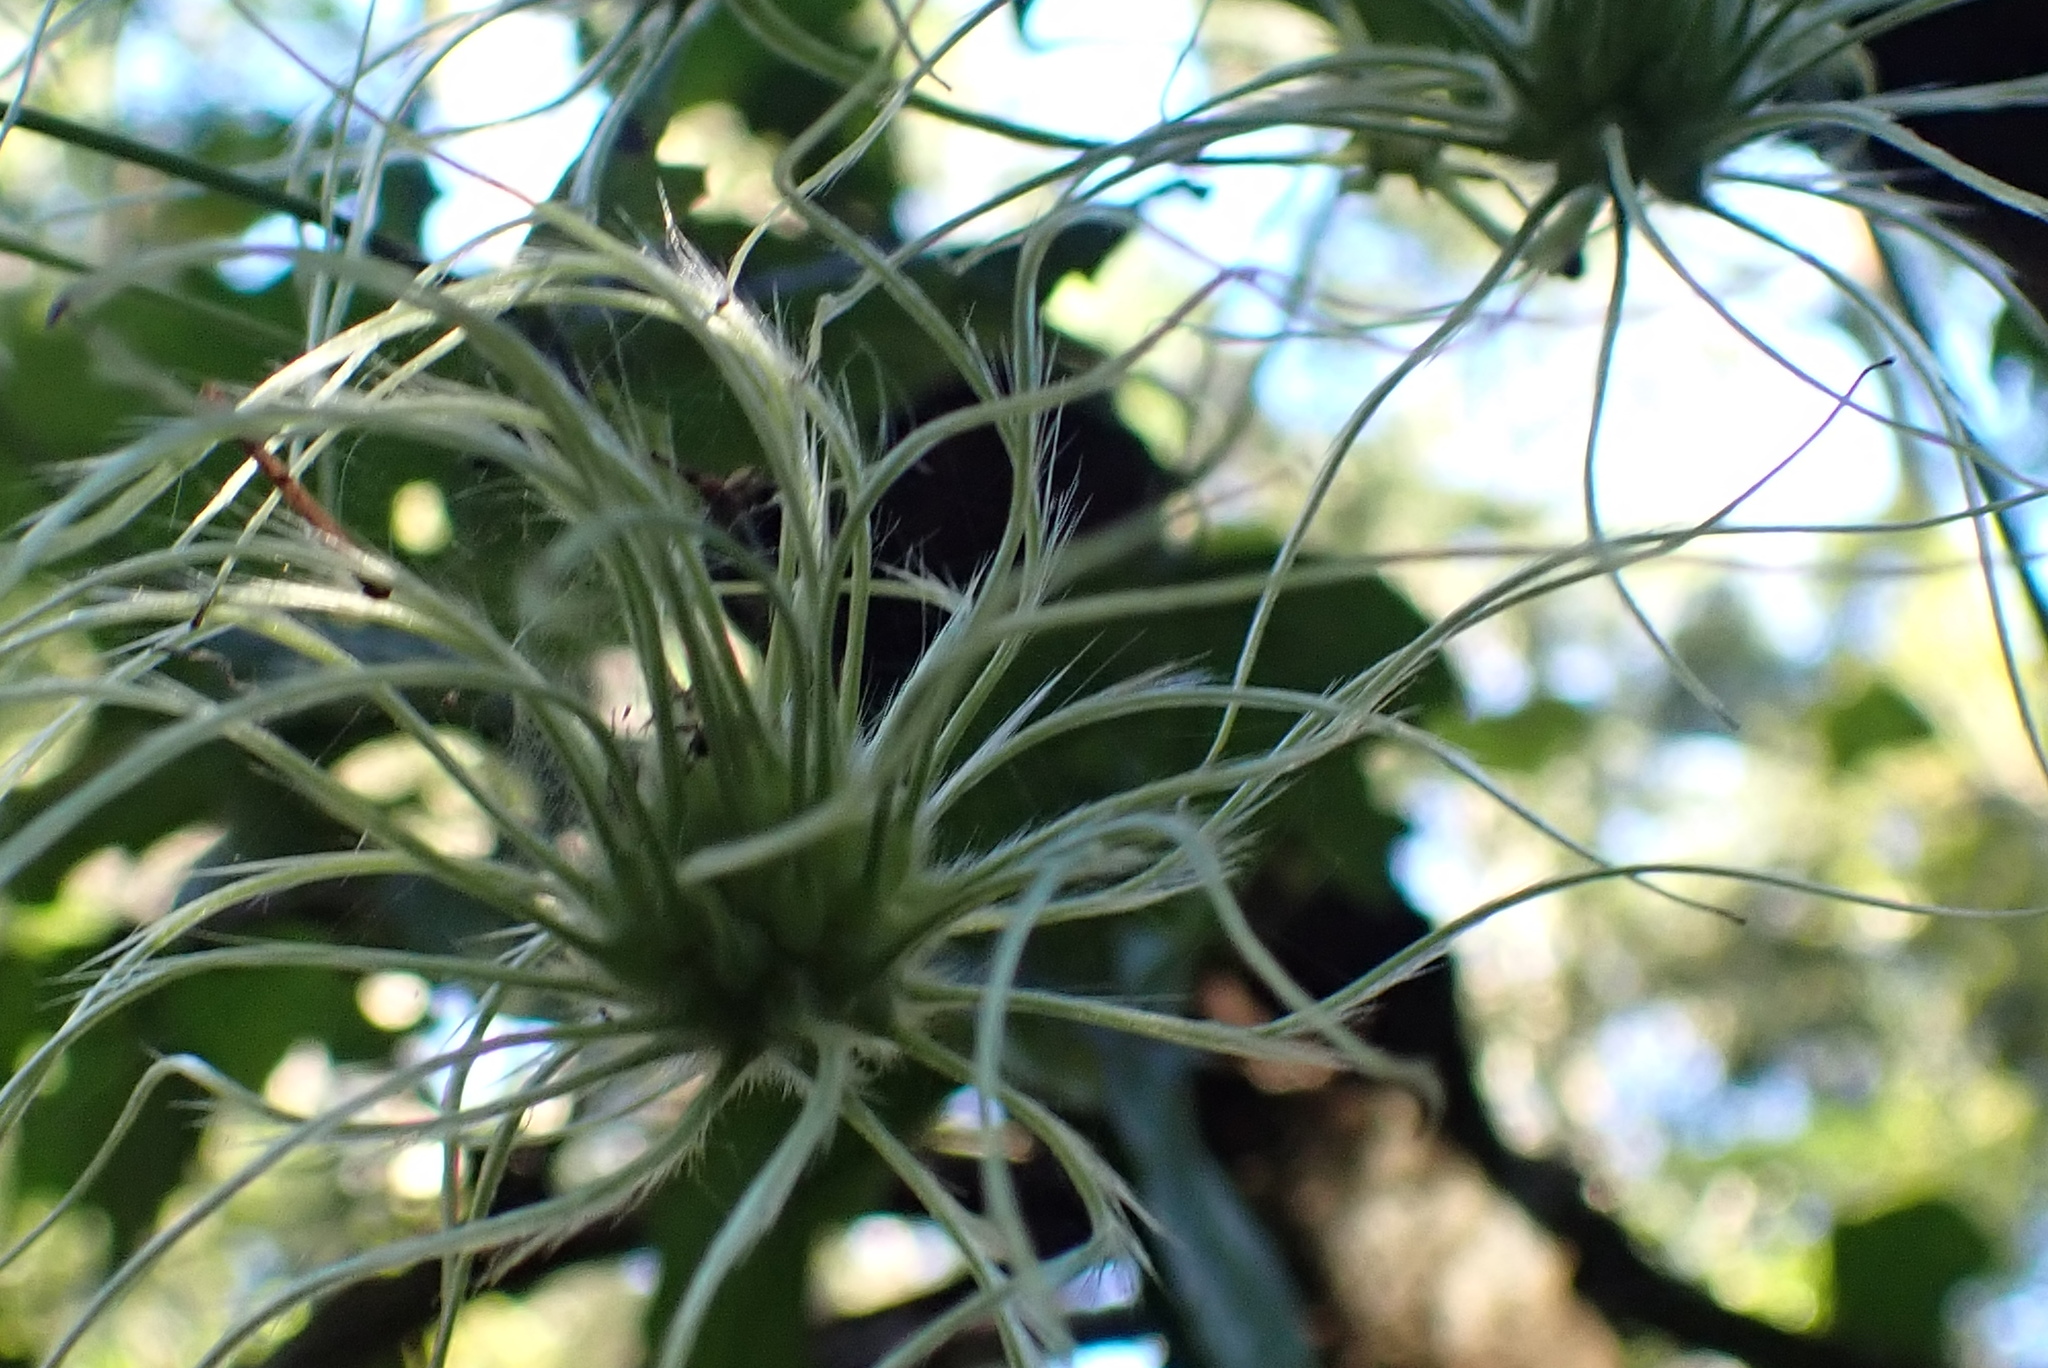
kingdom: Plantae
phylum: Tracheophyta
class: Magnoliopsida
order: Ranunculales
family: Ranunculaceae
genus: Clematis
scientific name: Clematis brachiata
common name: Traveler's-joy
